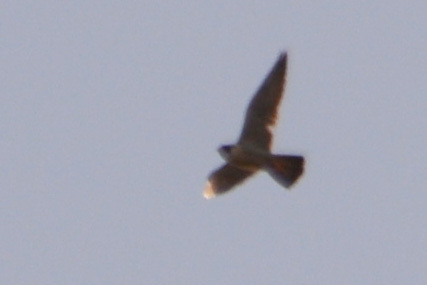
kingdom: Animalia
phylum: Chordata
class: Aves
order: Falconiformes
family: Falconidae
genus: Falco
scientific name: Falco peregrinus
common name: Peregrine falcon
